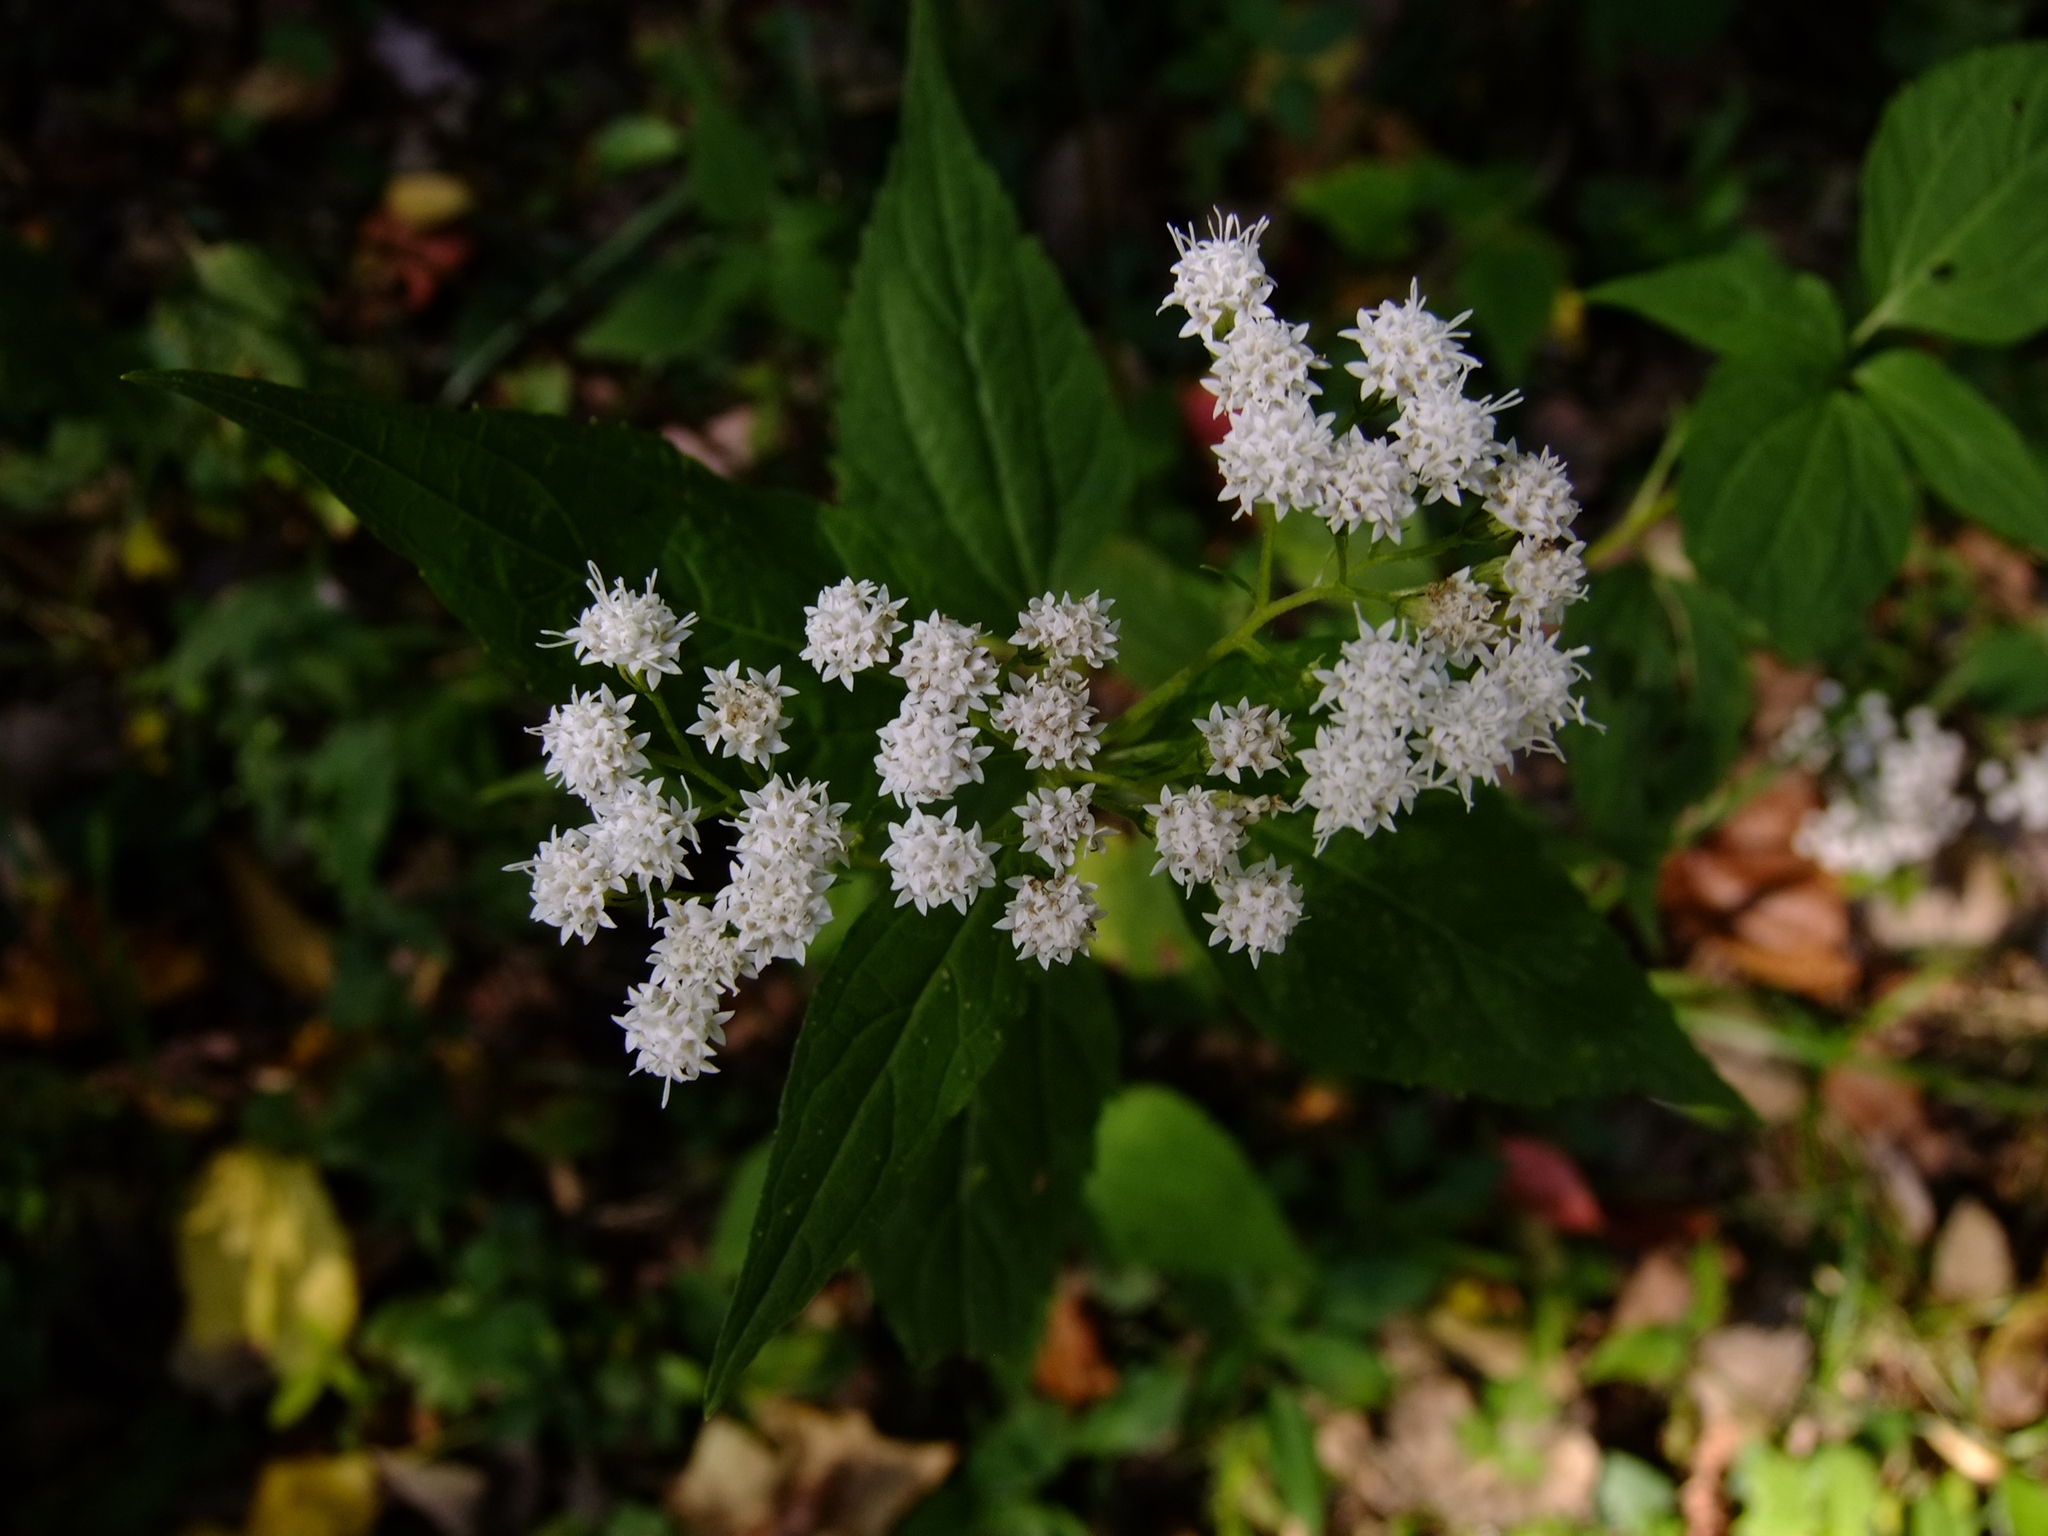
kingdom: Plantae
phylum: Tracheophyta
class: Magnoliopsida
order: Asterales
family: Asteraceae
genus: Ageratina
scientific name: Ageratina altissima
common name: White snakeroot
